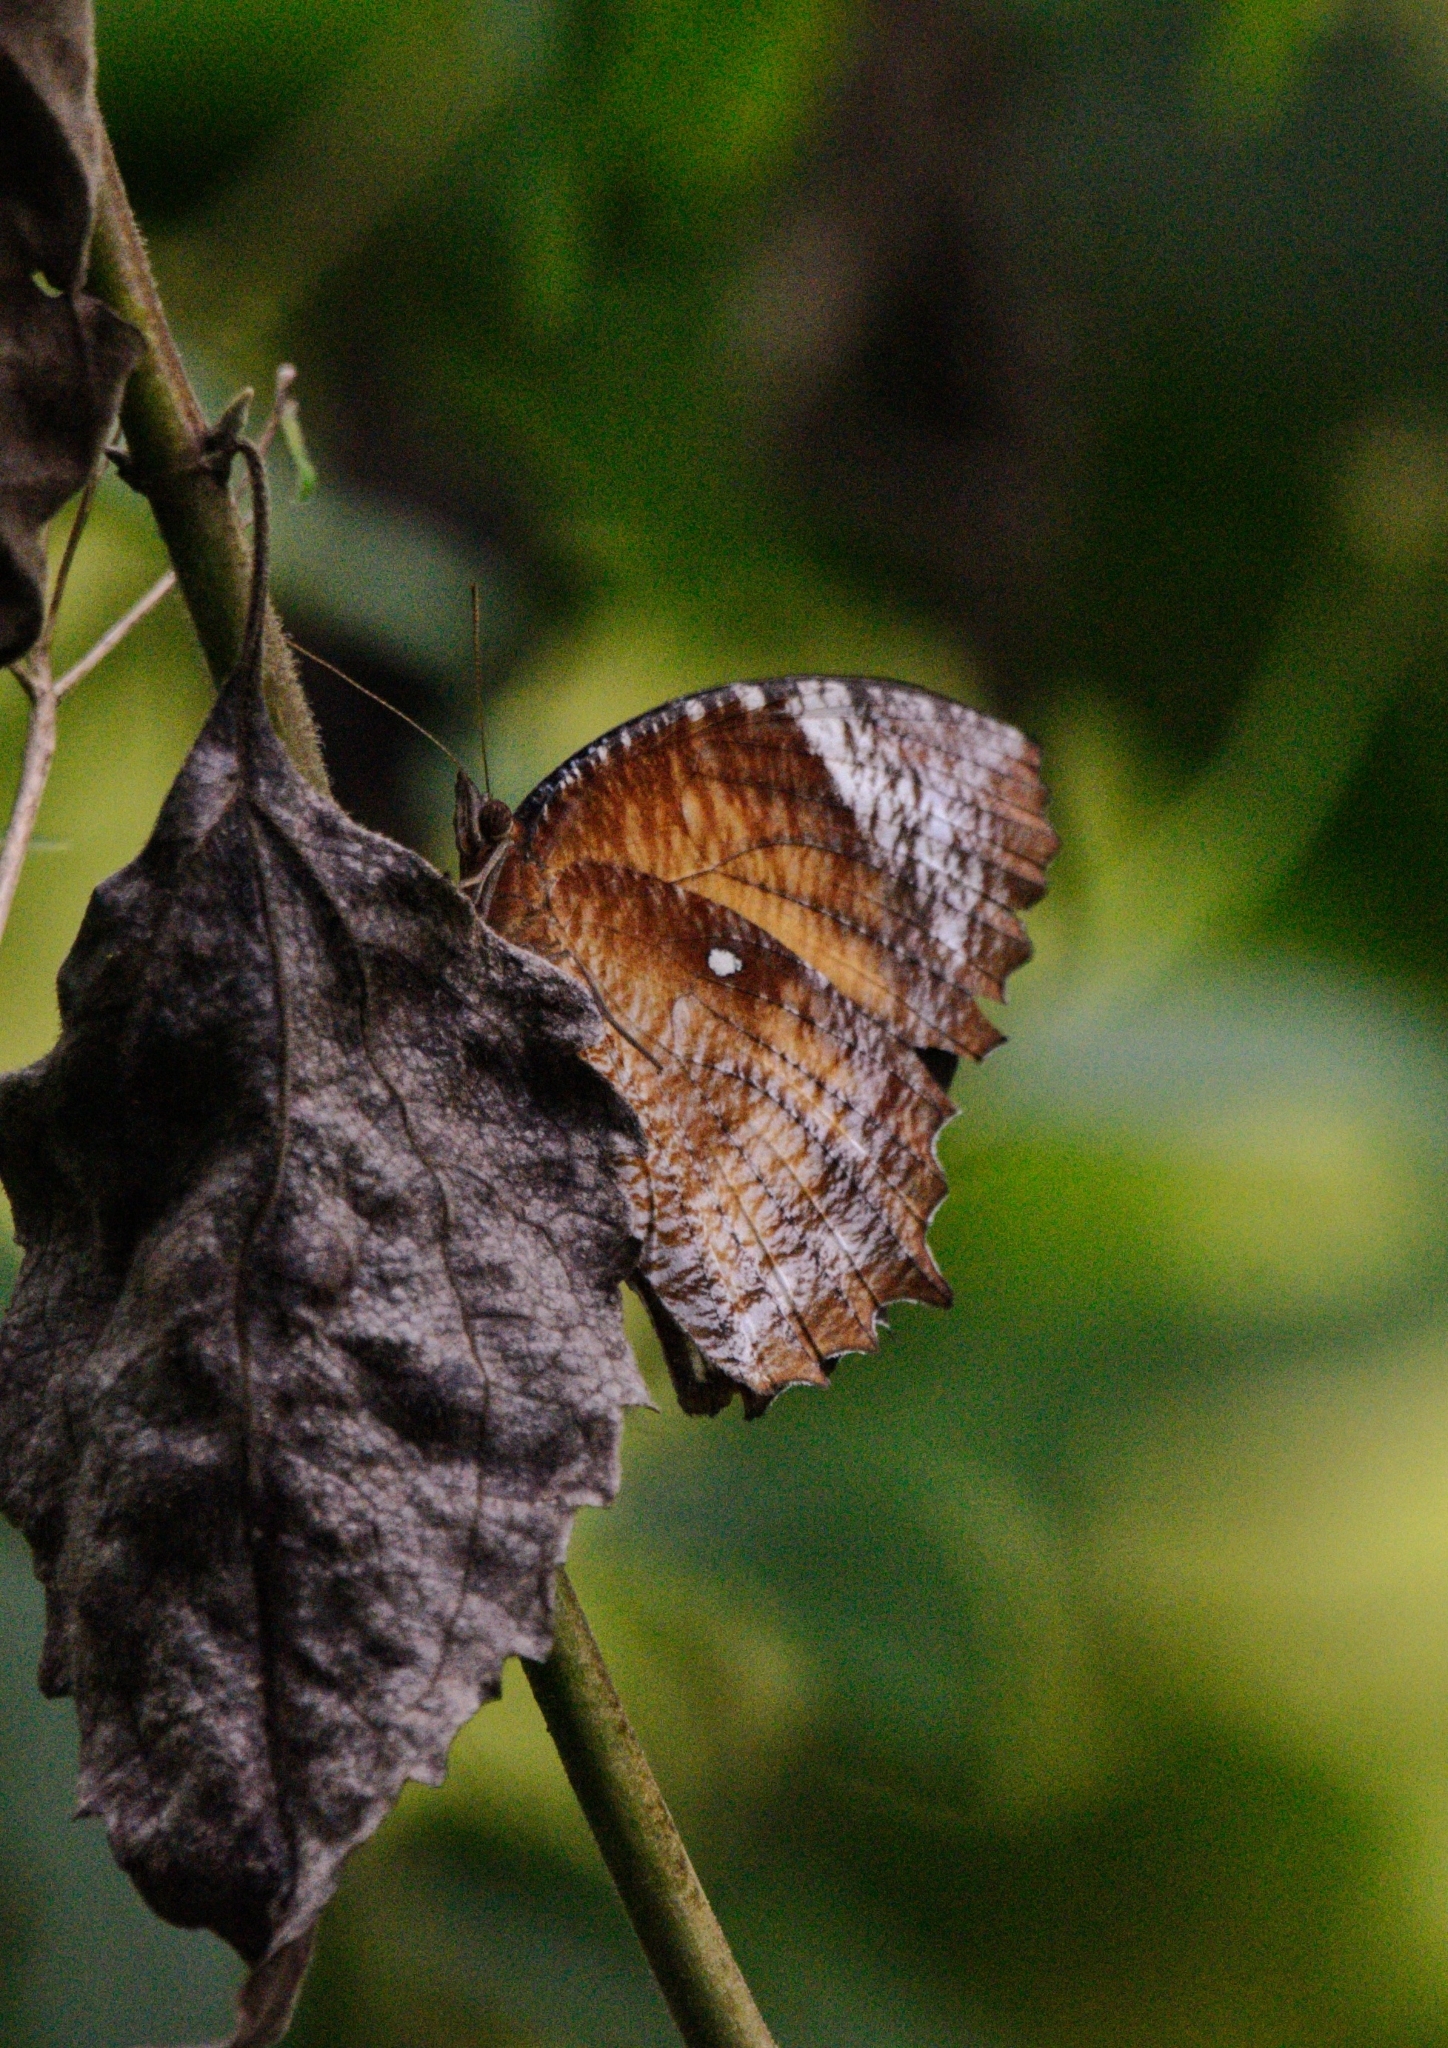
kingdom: Animalia
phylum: Arthropoda
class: Insecta
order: Lepidoptera
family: Nymphalidae
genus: Elymnias
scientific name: Elymnias hypermnestra
